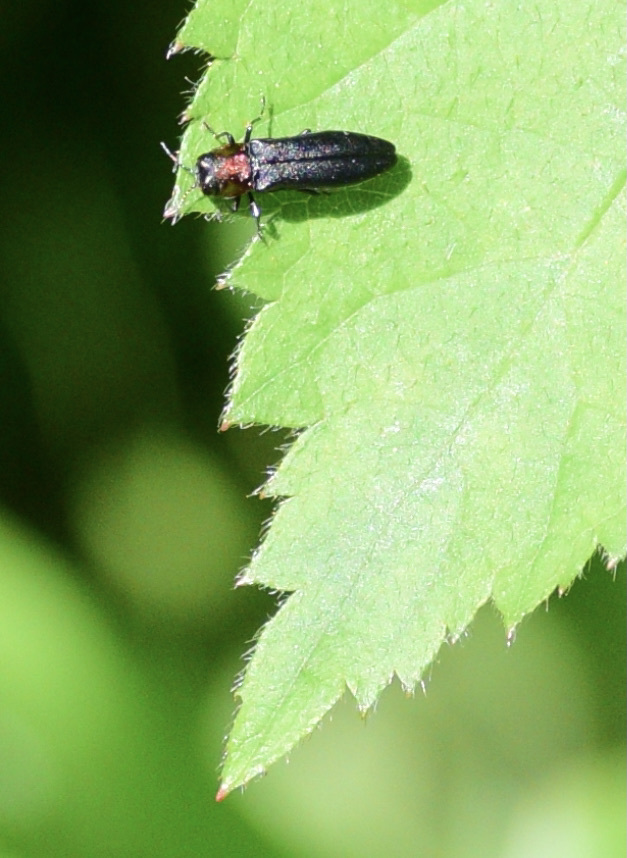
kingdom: Animalia
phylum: Arthropoda
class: Insecta
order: Coleoptera
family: Buprestidae
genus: Agrilus
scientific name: Agrilus ruficollis
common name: Red-necked cane borer beetle
